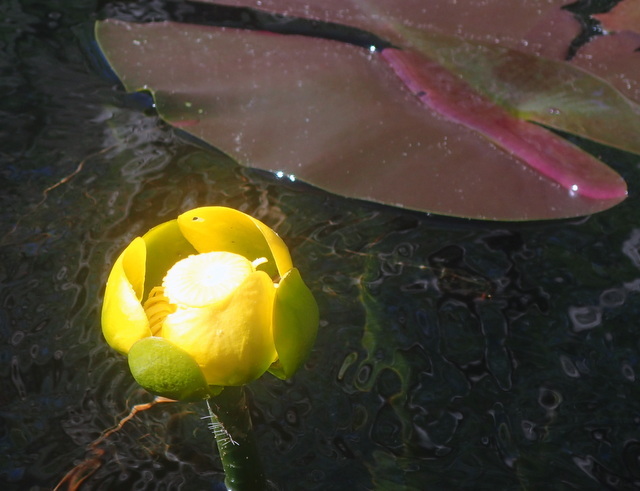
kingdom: Plantae
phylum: Tracheophyta
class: Magnoliopsida
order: Nymphaeales
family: Nymphaeaceae
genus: Nuphar
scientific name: Nuphar advena
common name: Spatter-dock
